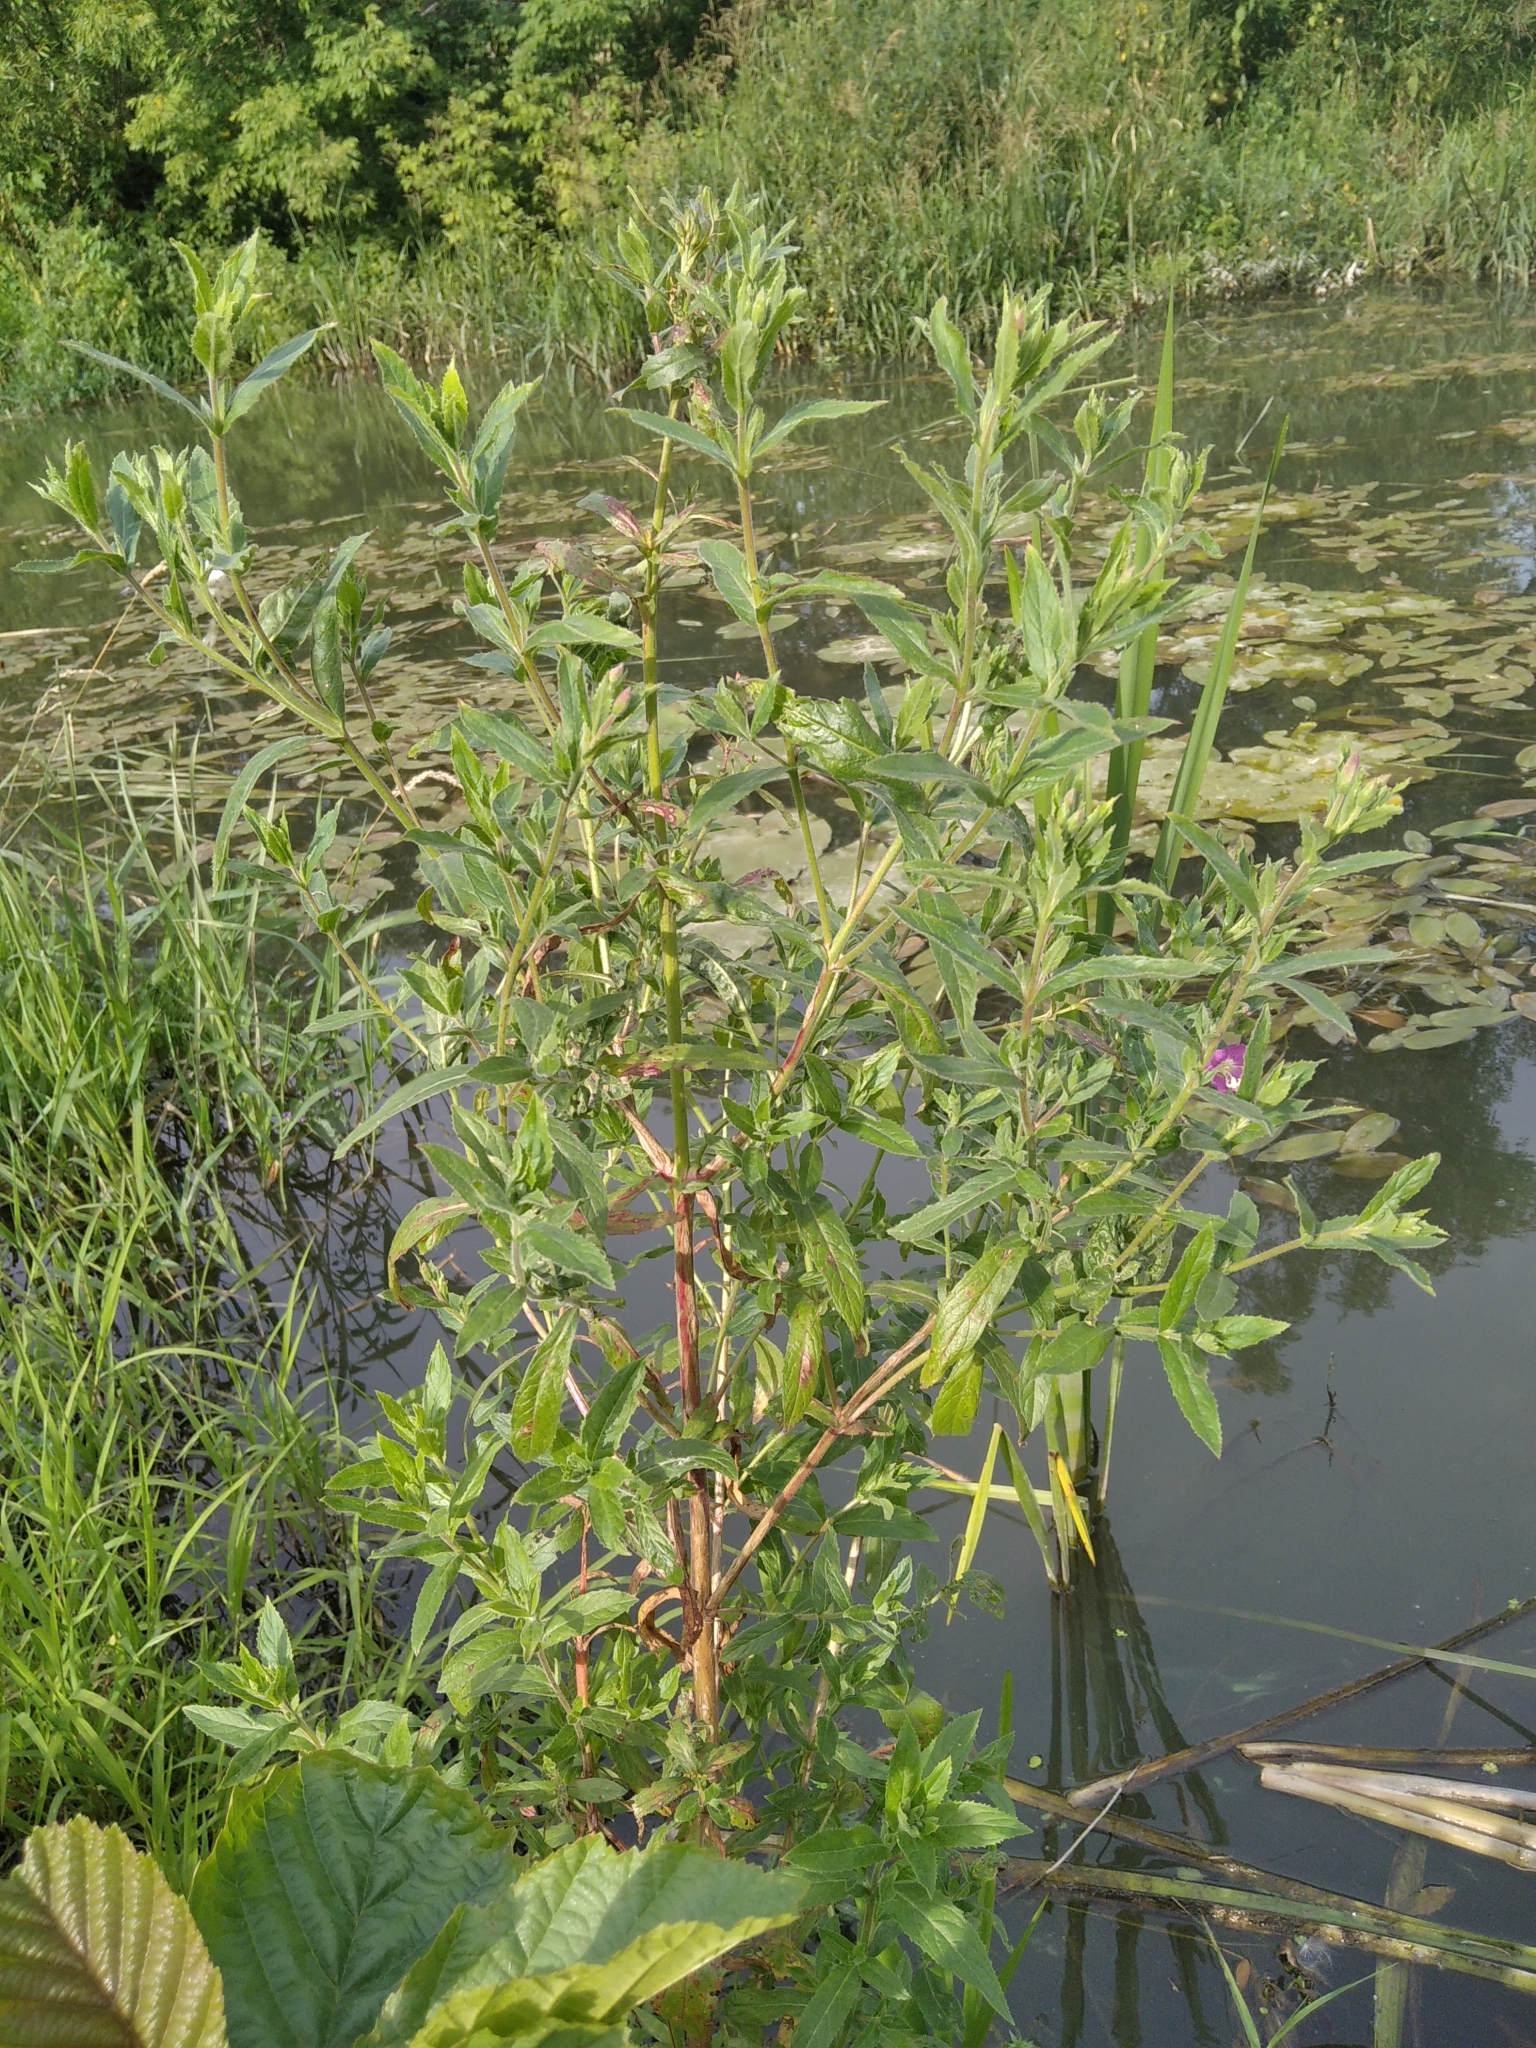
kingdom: Plantae
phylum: Tracheophyta
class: Magnoliopsida
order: Myrtales
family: Onagraceae
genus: Epilobium
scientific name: Epilobium hirsutum
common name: Great willowherb
